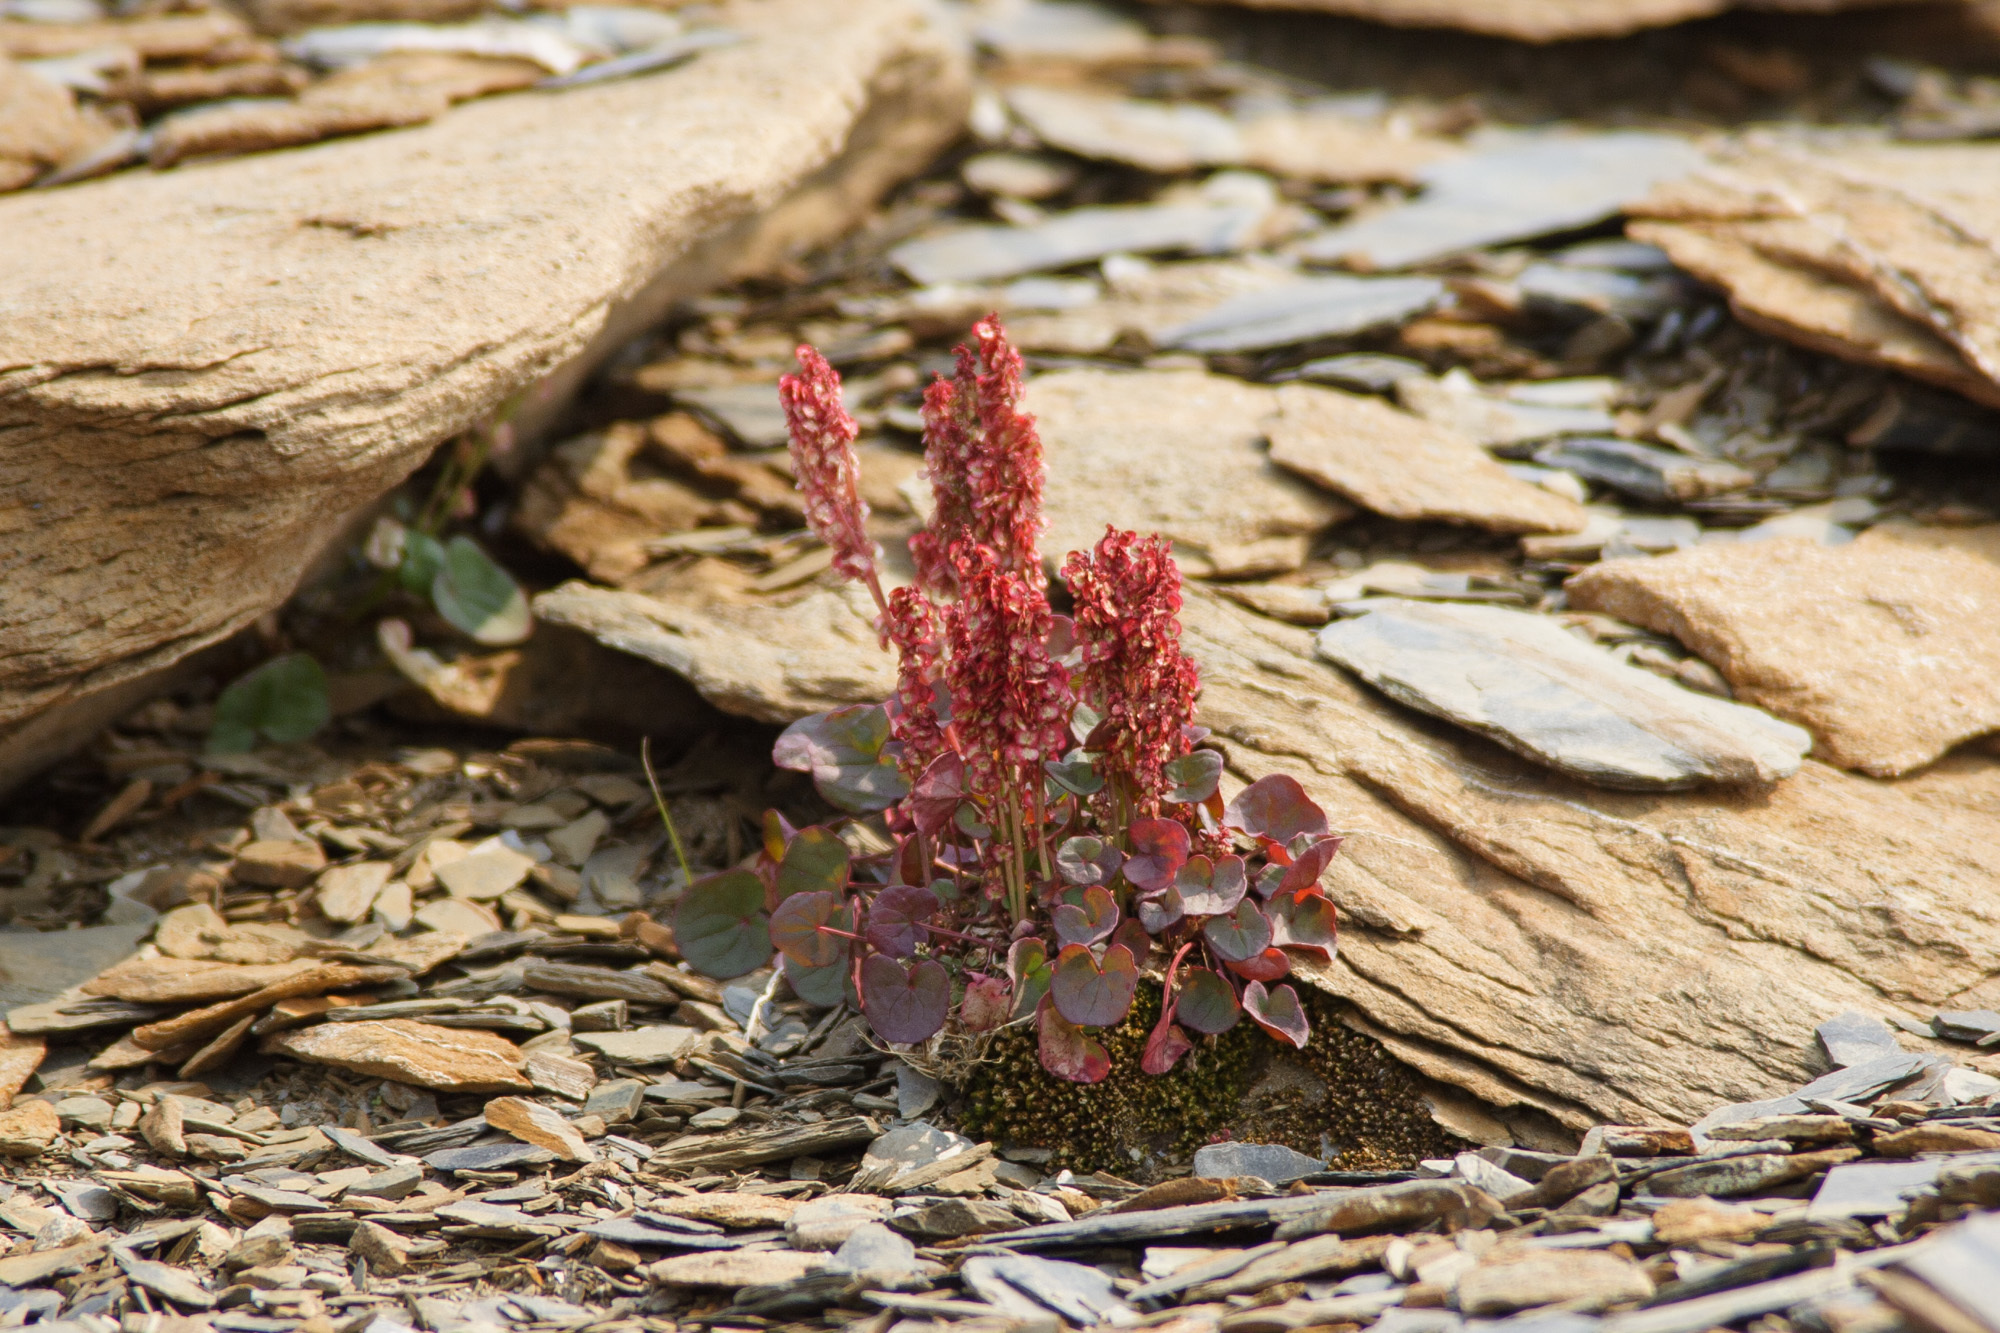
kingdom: Plantae
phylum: Tracheophyta
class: Magnoliopsida
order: Caryophyllales
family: Polygonaceae
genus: Oxyria
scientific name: Oxyria digyna
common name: Alpine mountain-sorrel
